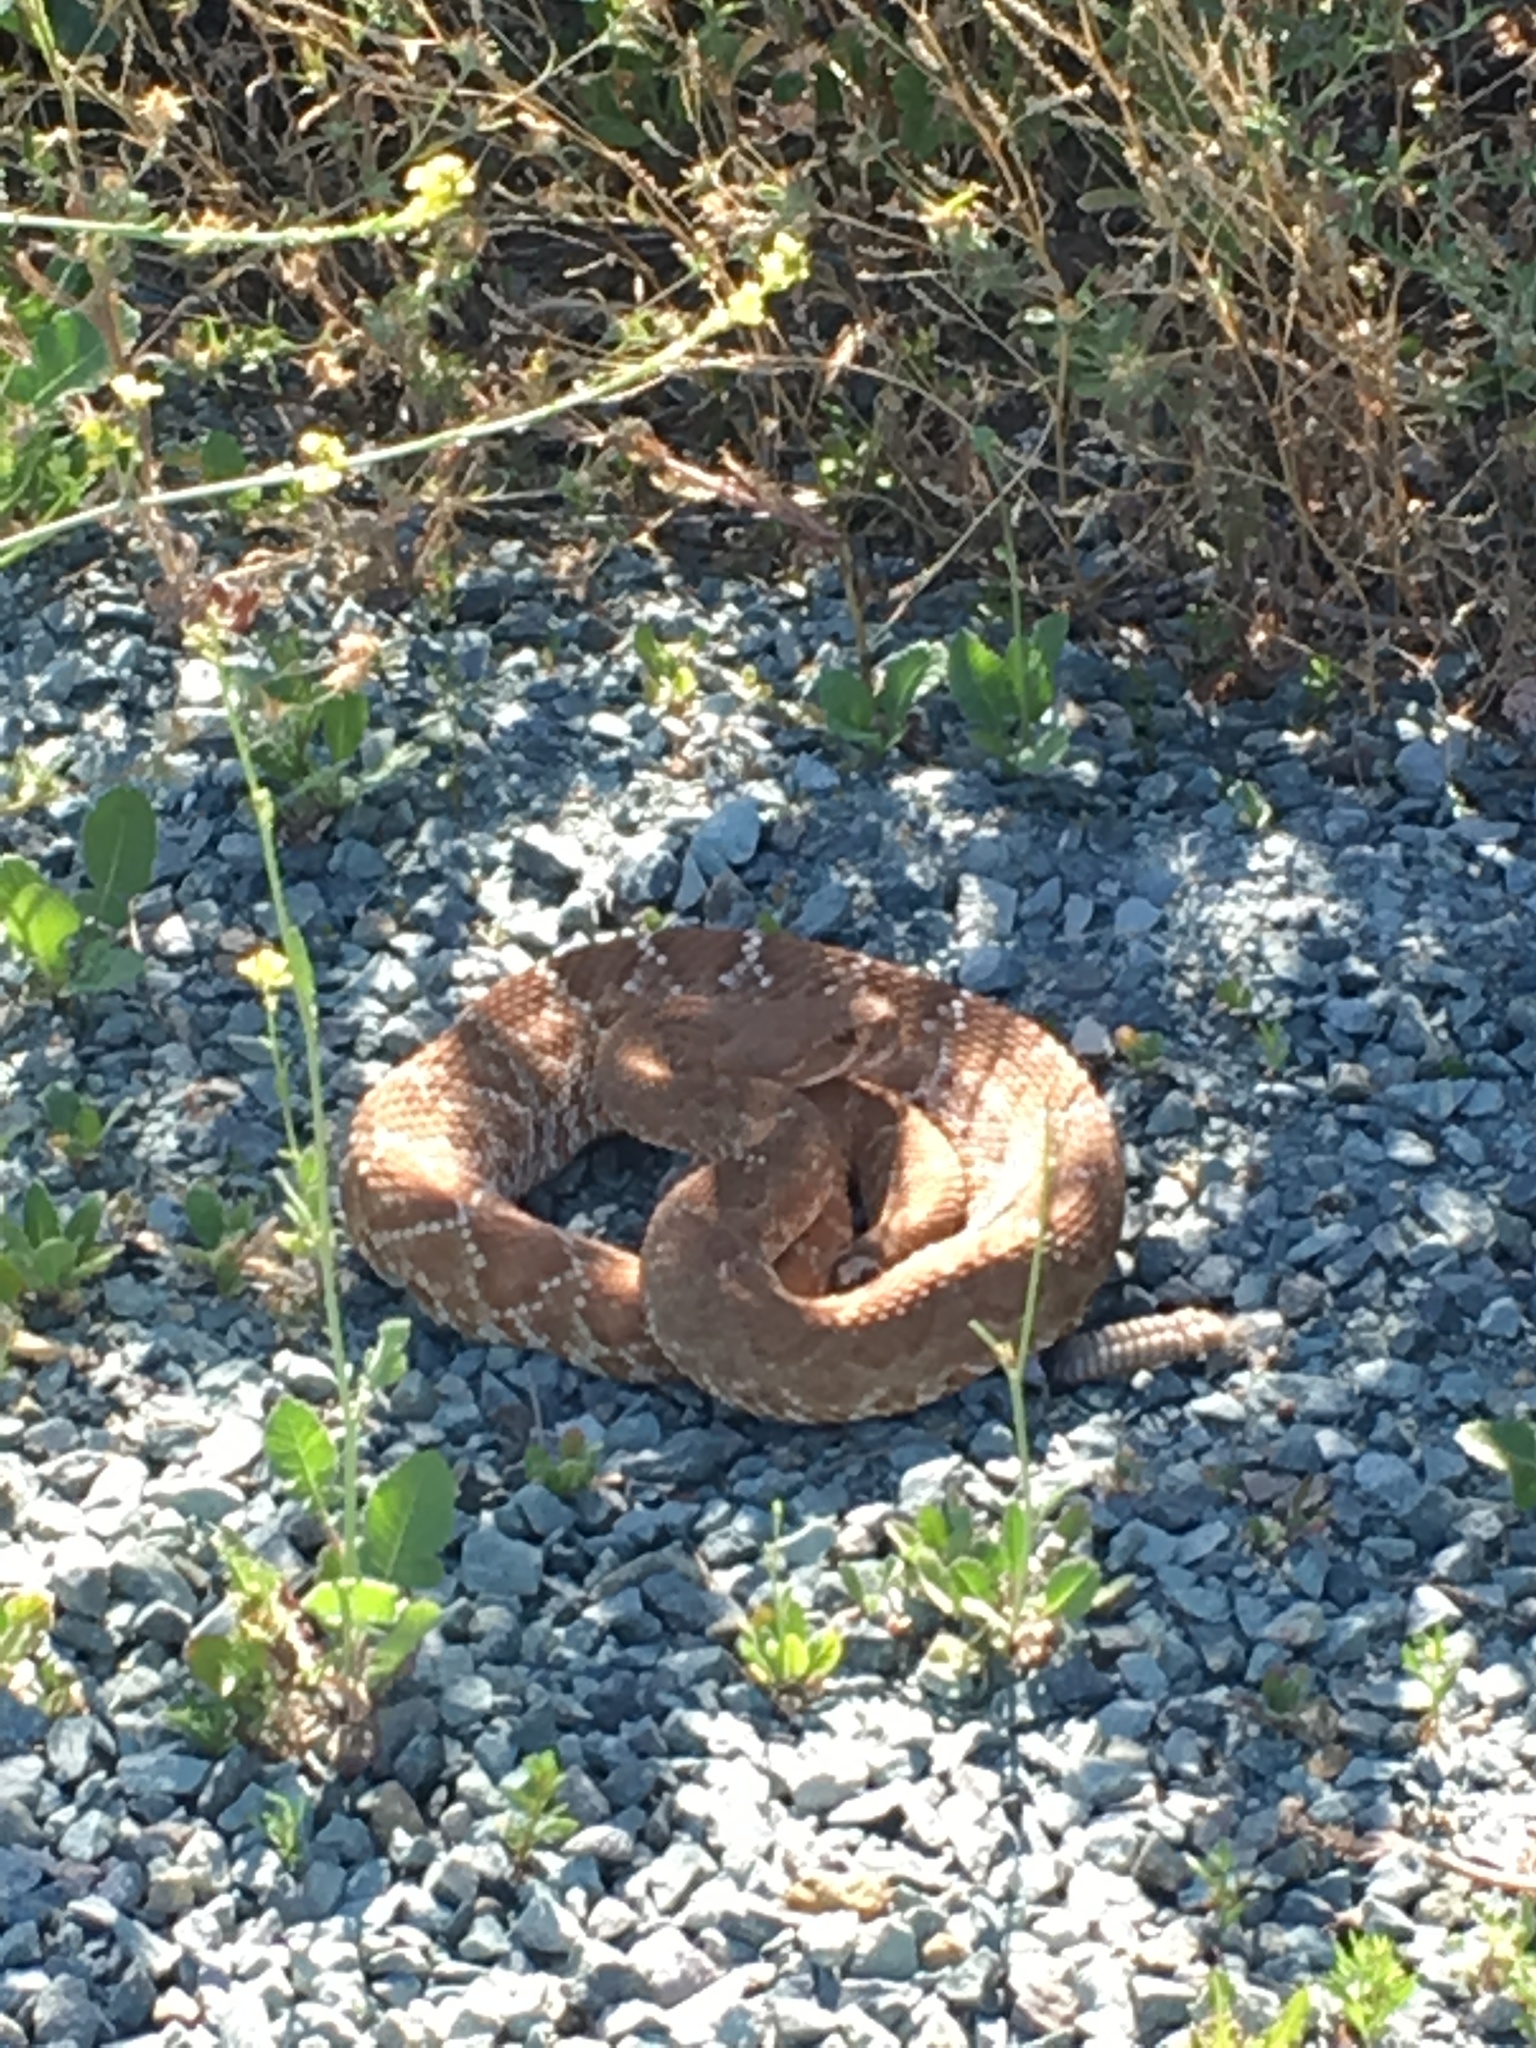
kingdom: Animalia
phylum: Chordata
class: Squamata
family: Viperidae
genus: Crotalus
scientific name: Crotalus ruber
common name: Red diamond rattlesnake
